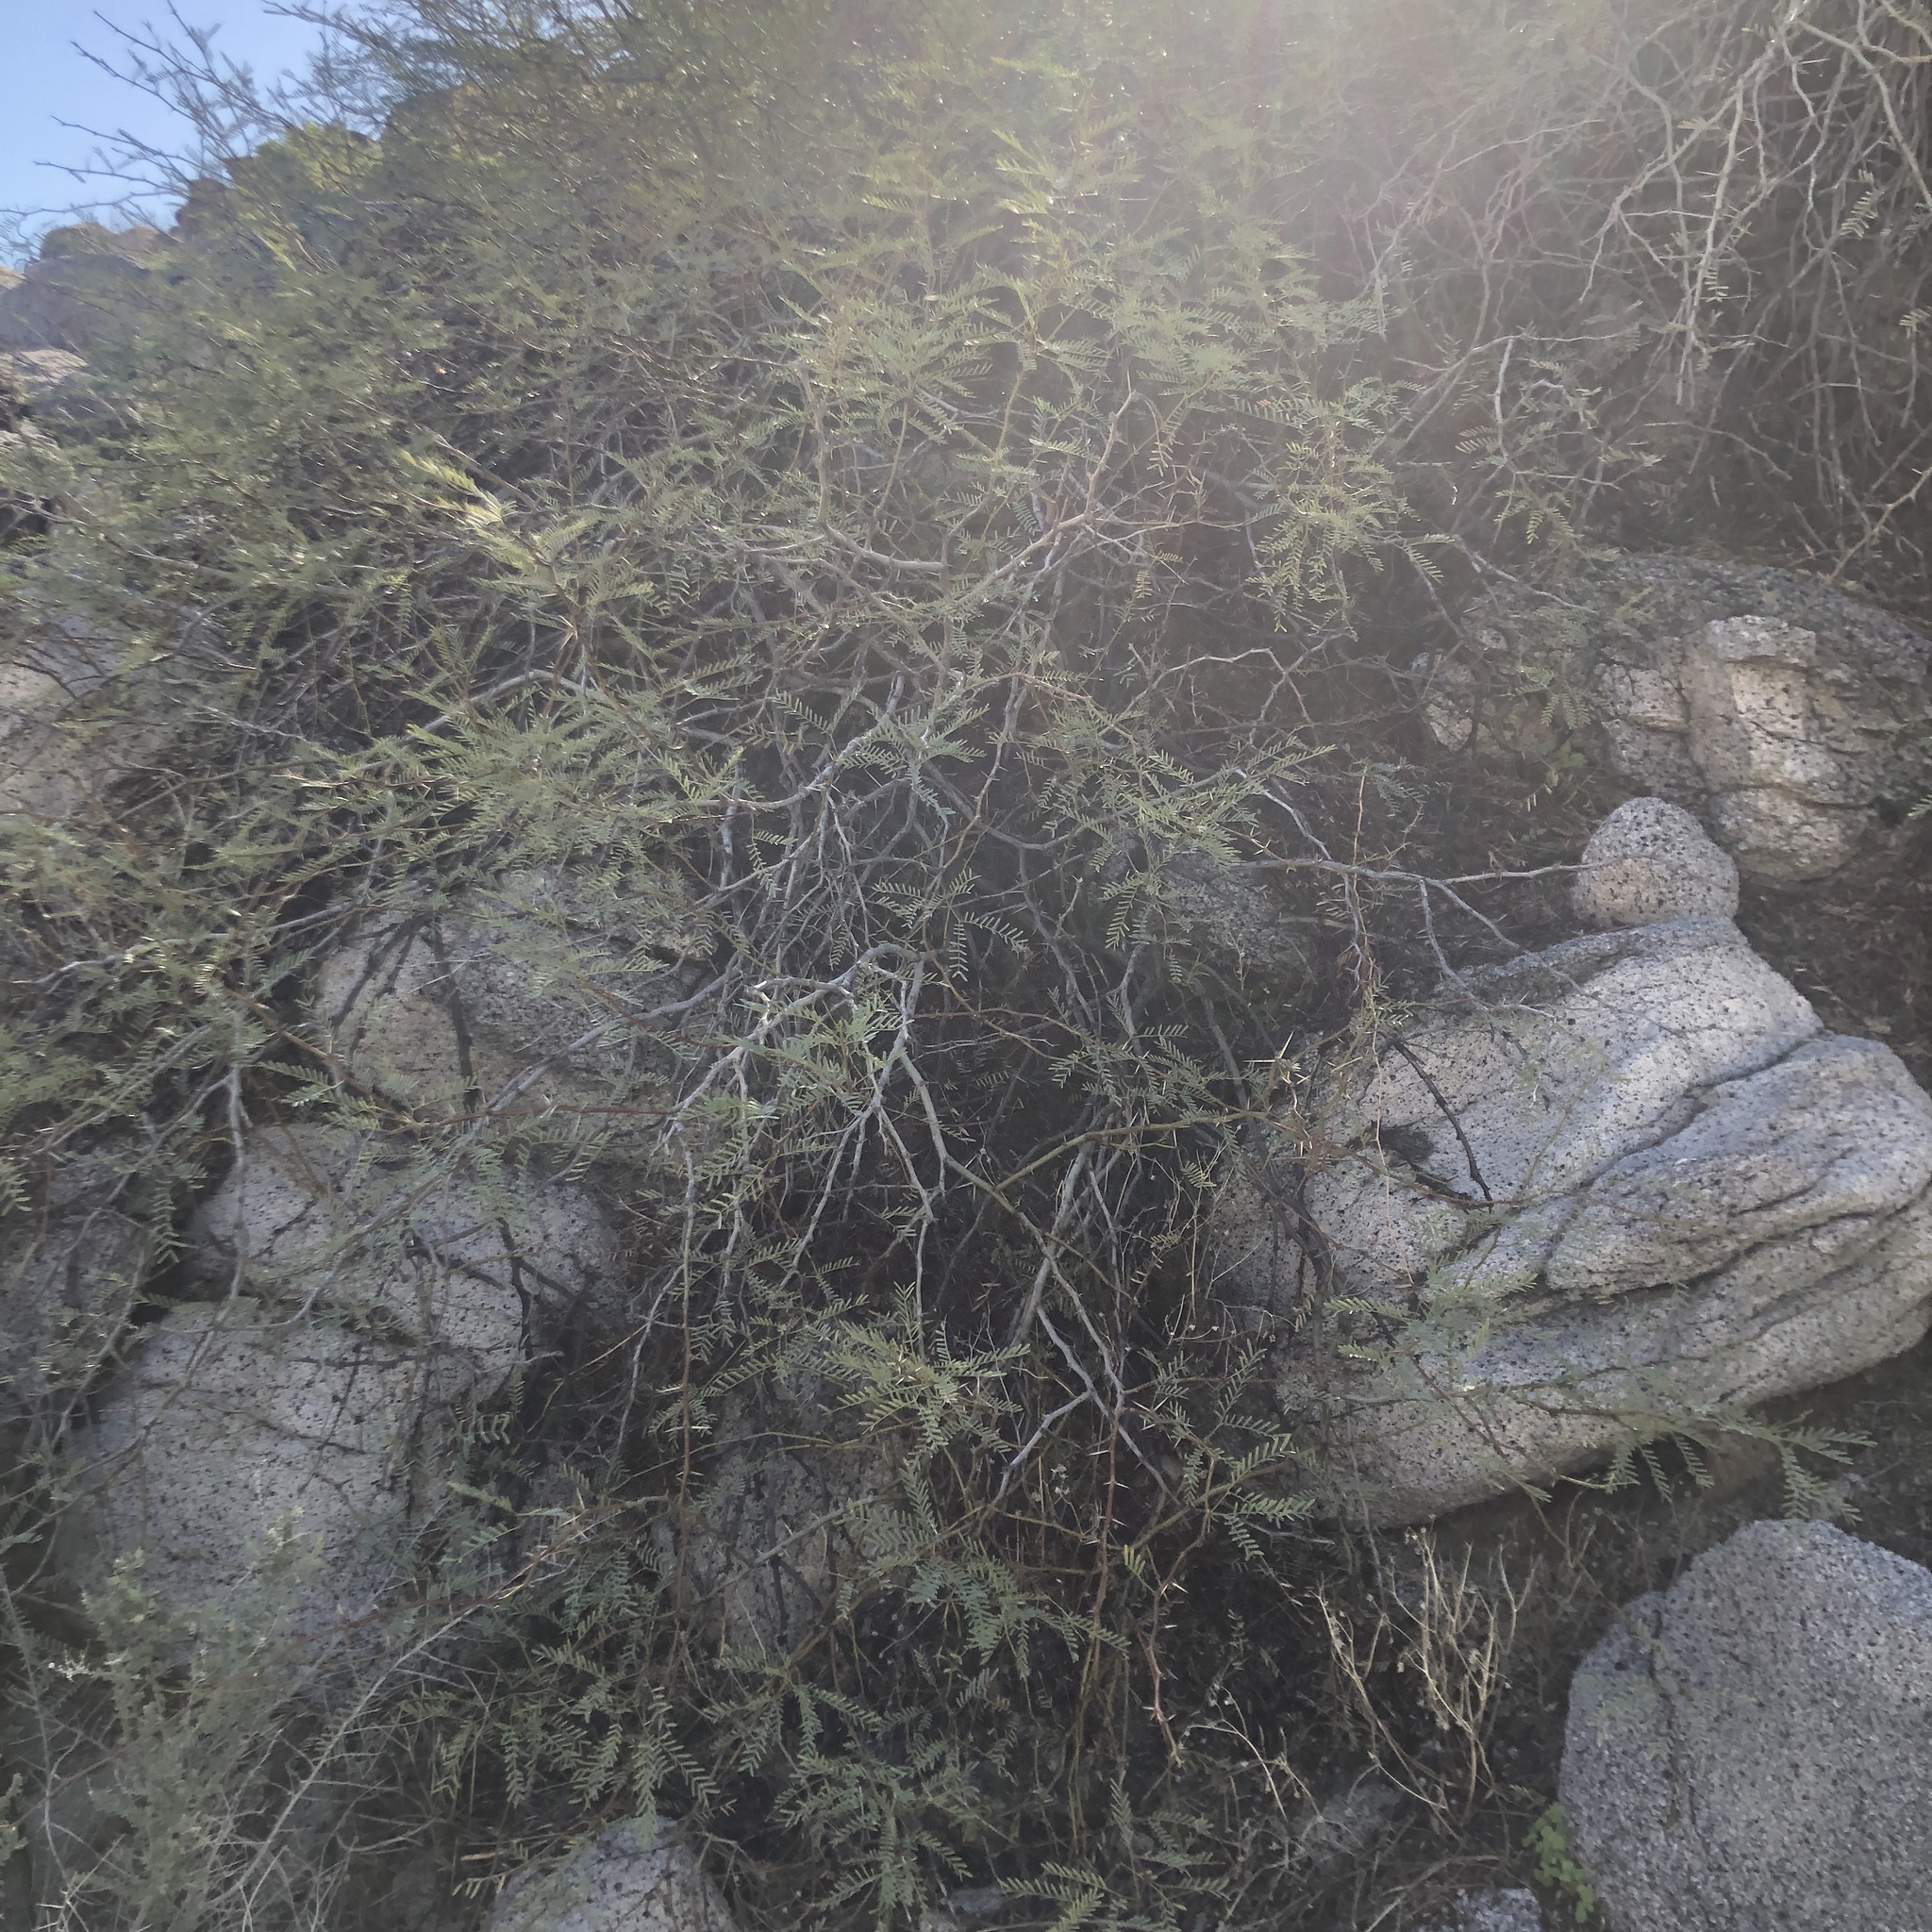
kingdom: Plantae
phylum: Tracheophyta
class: Magnoliopsida
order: Fabales
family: Fabaceae
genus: Prosopis
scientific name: Prosopis pubescens
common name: Screw-bean
